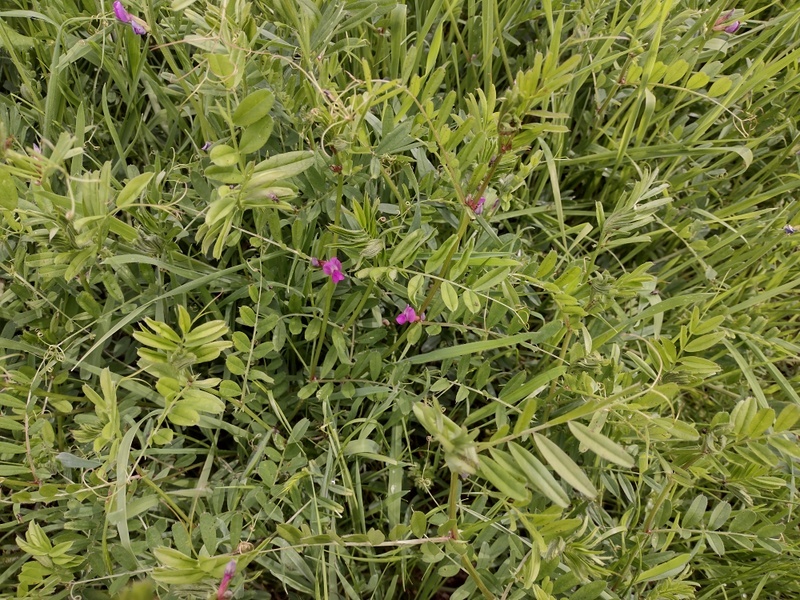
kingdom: Plantae
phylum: Tracheophyta
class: Magnoliopsida
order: Fabales
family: Fabaceae
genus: Vicia
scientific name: Vicia sativa
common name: Garden vetch
